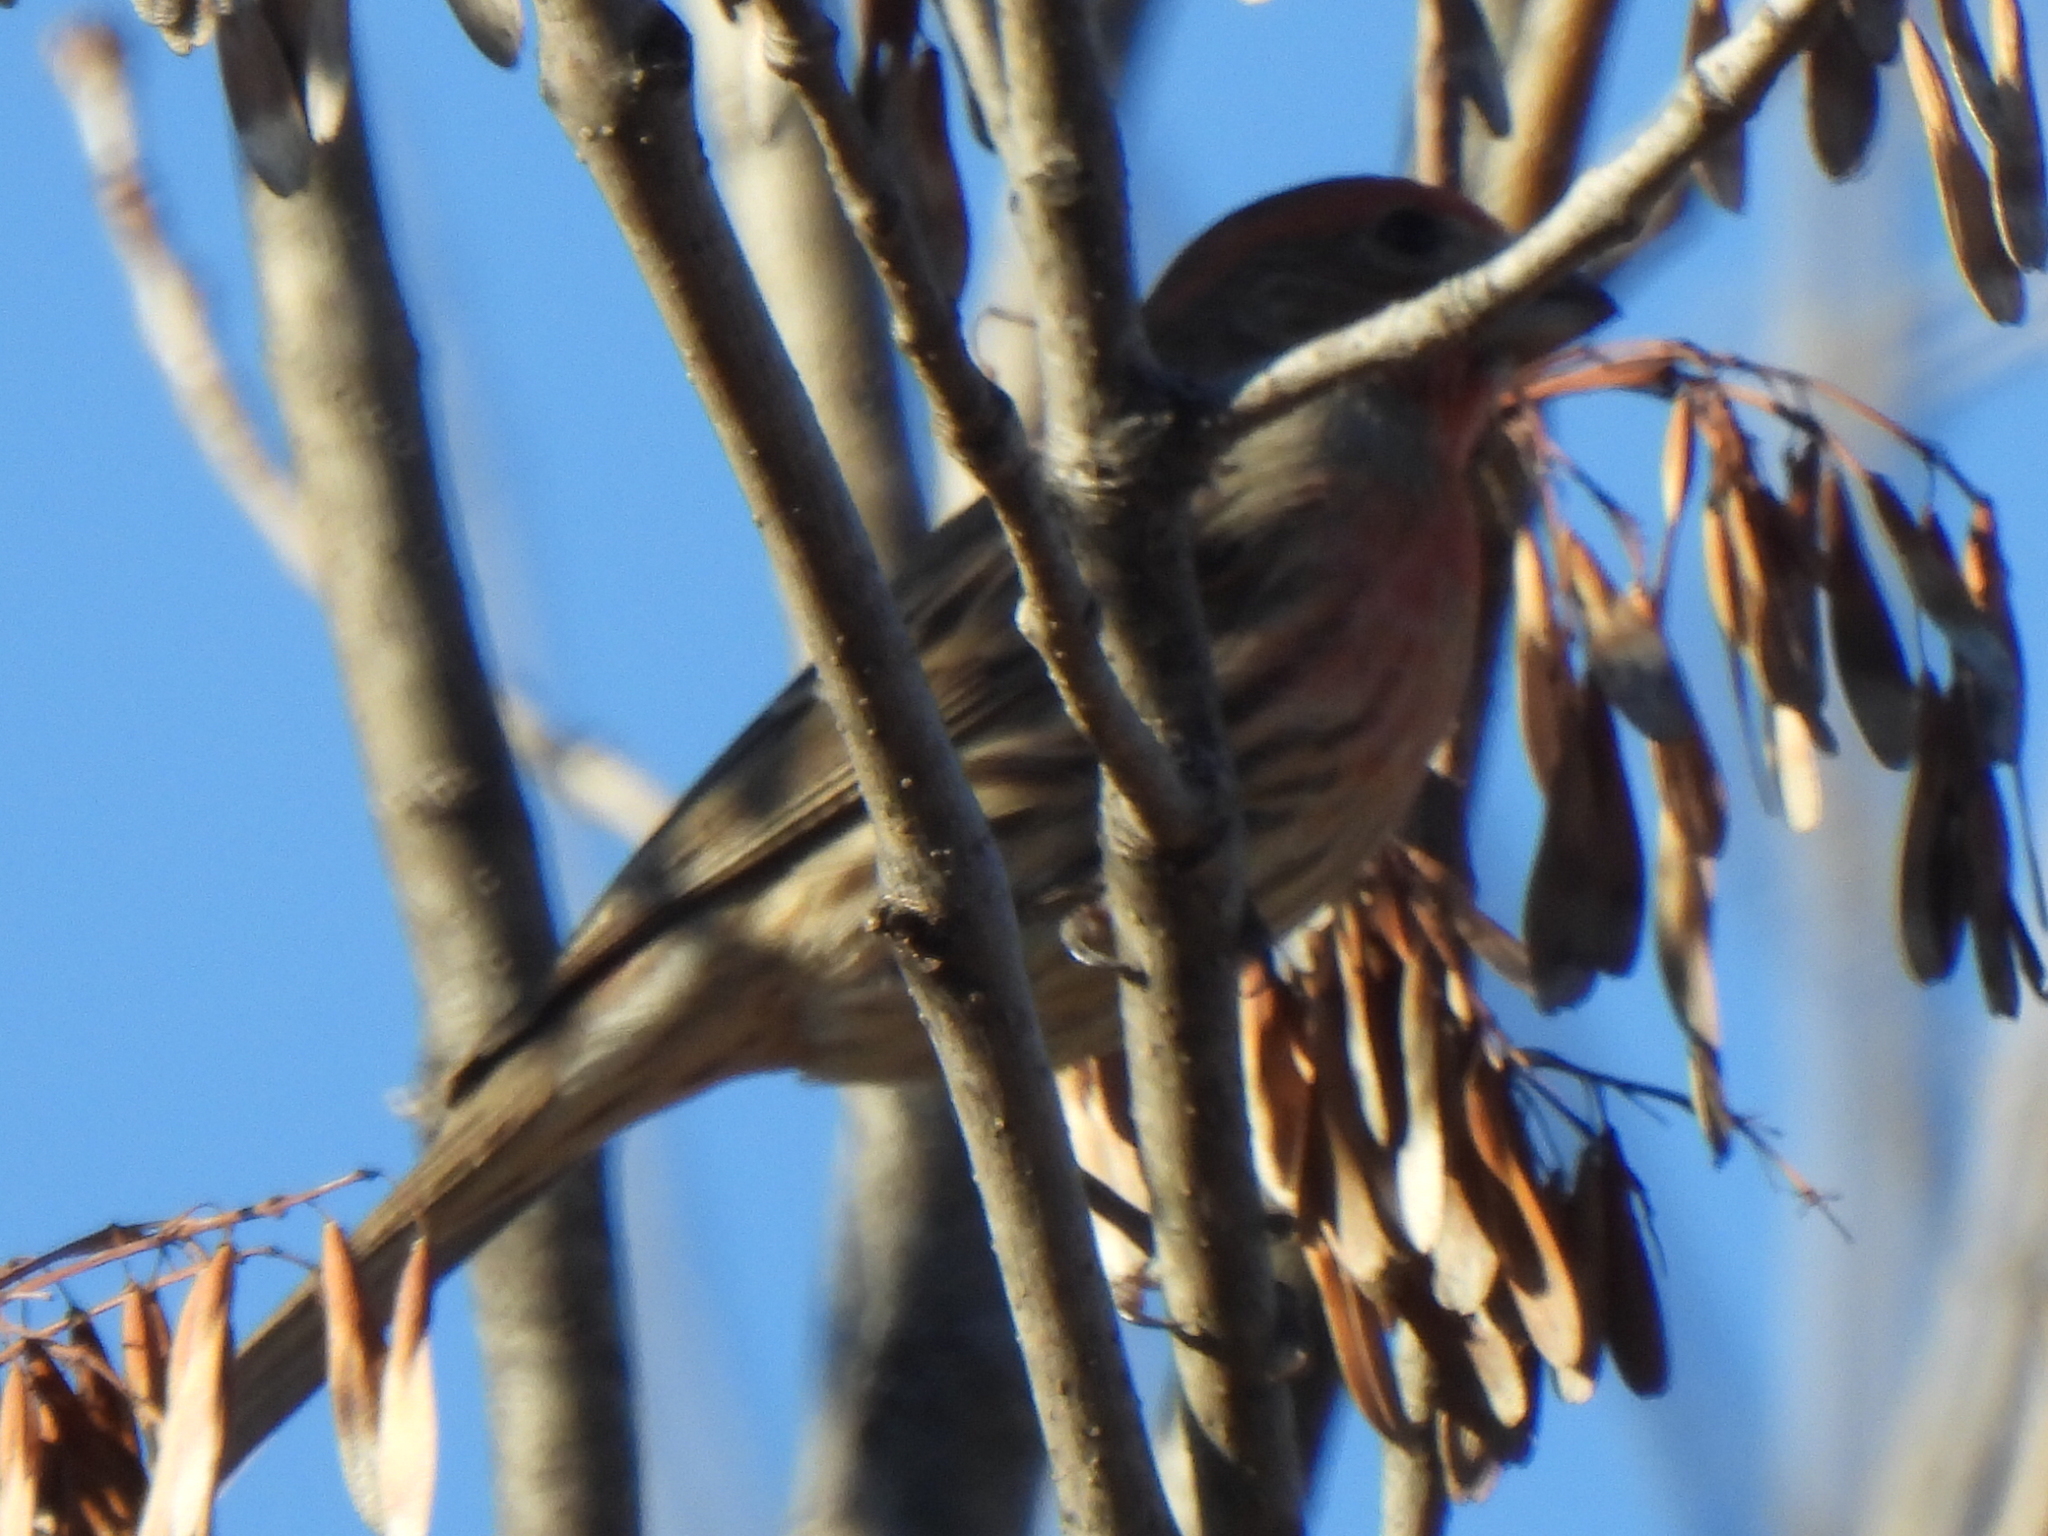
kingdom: Animalia
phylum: Chordata
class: Aves
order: Passeriformes
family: Fringillidae
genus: Haemorhous
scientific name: Haemorhous mexicanus
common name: House finch
